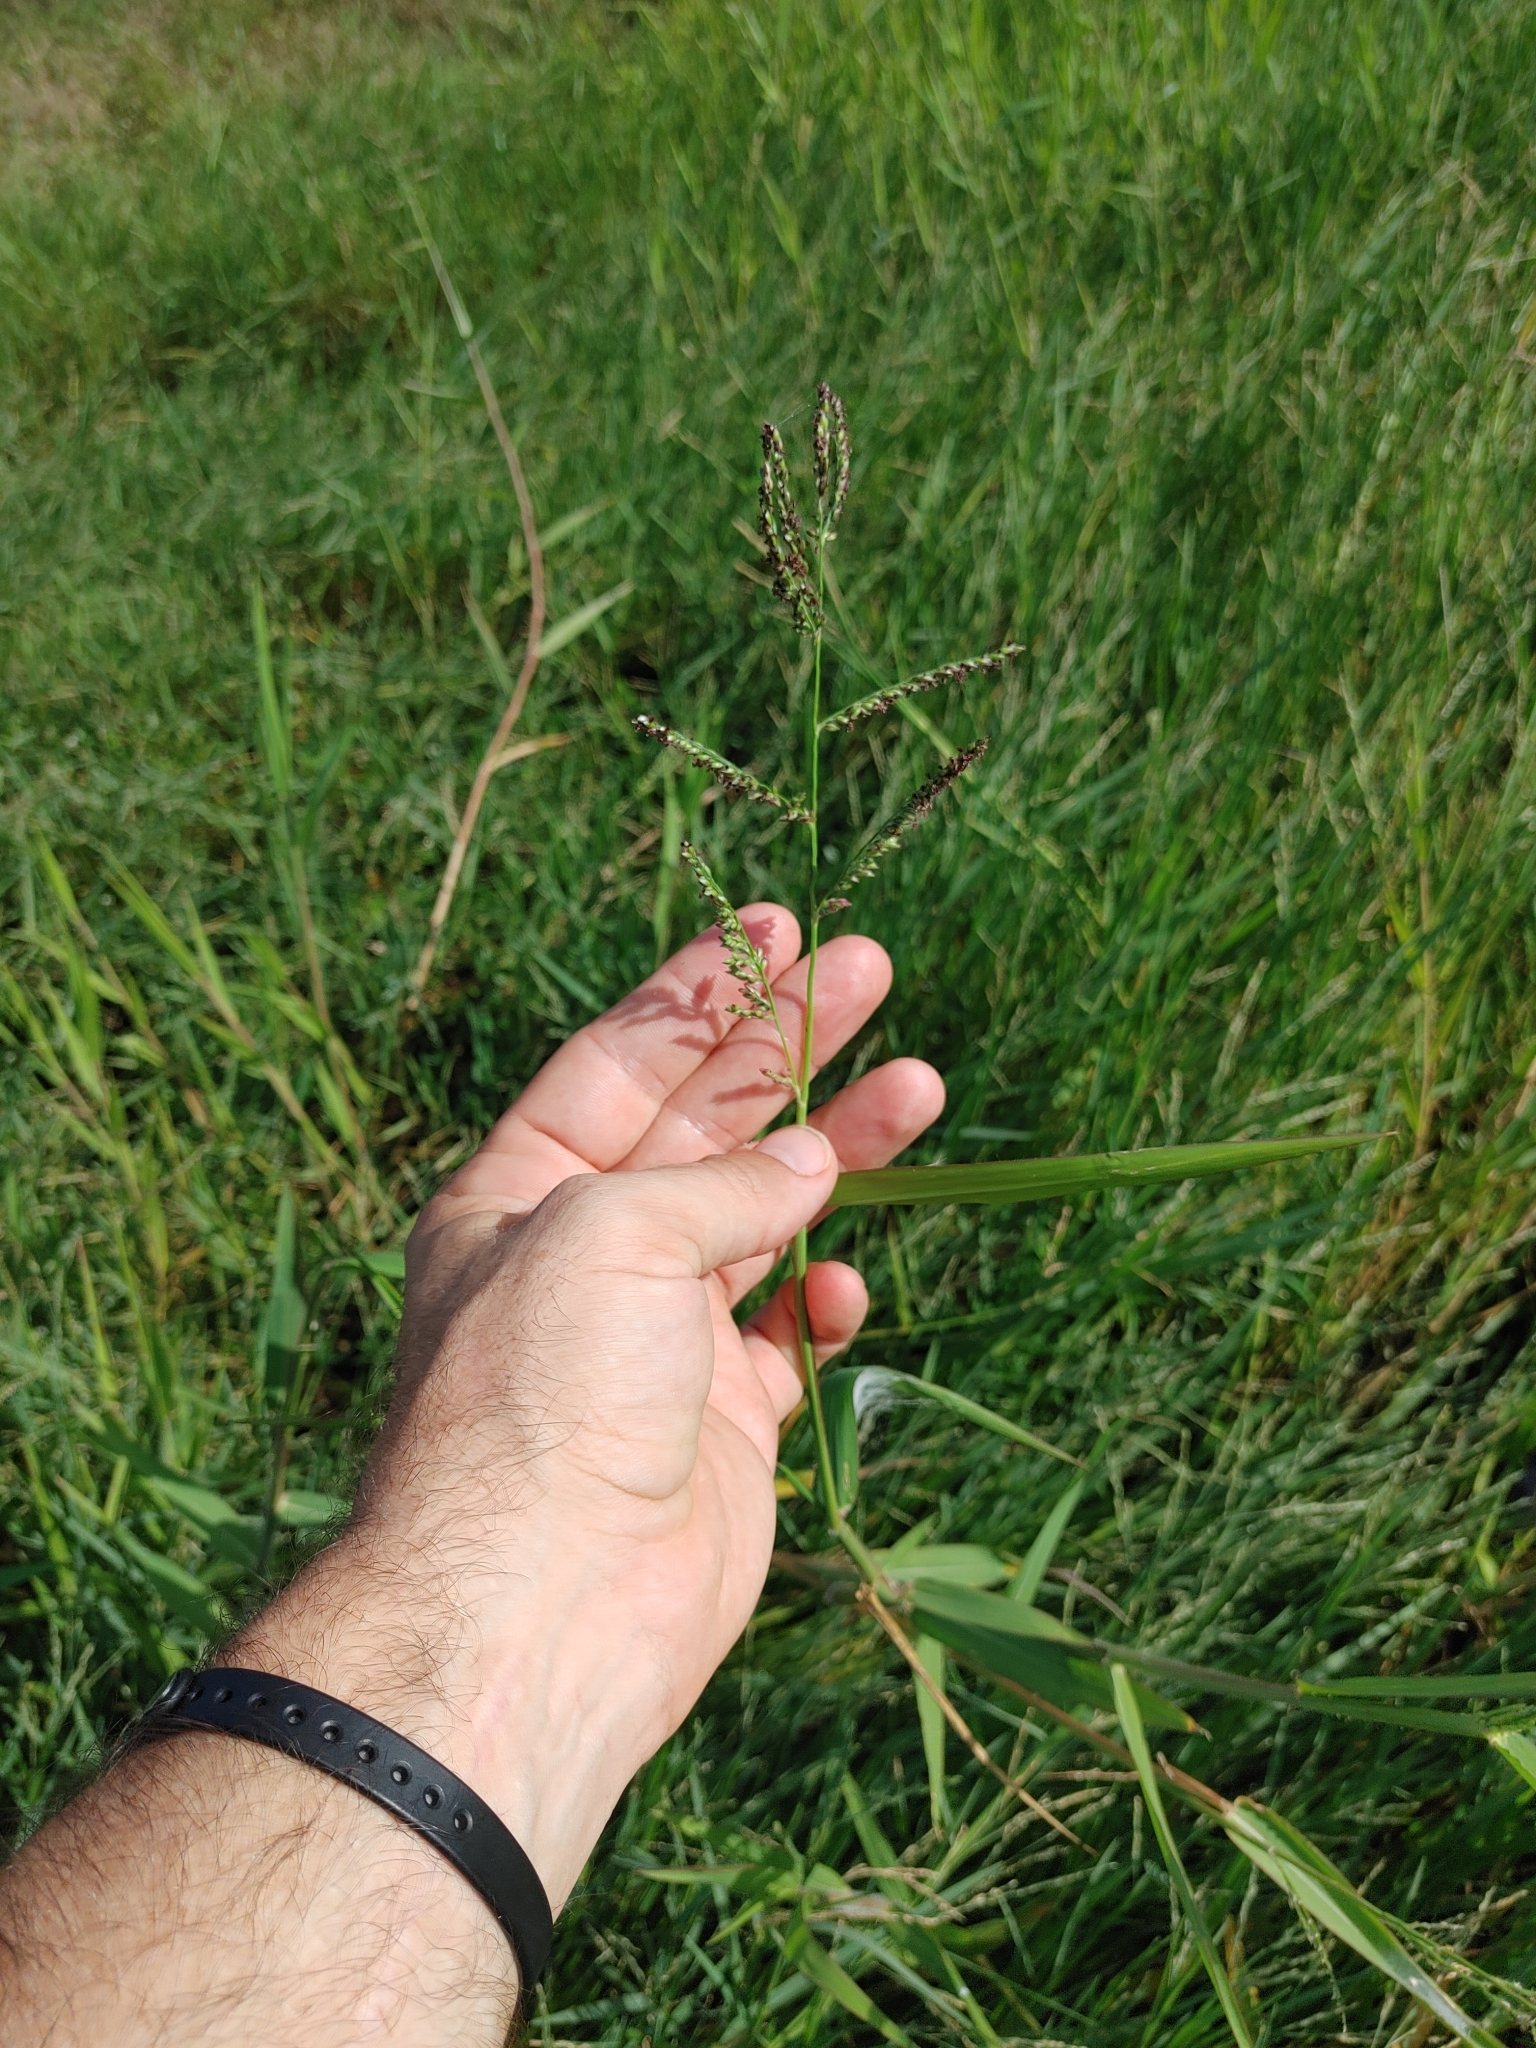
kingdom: Plantae
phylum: Tracheophyta
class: Liliopsida
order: Poales
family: Poaceae
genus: Urochloa
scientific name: Urochloa mutica
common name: Para grass
